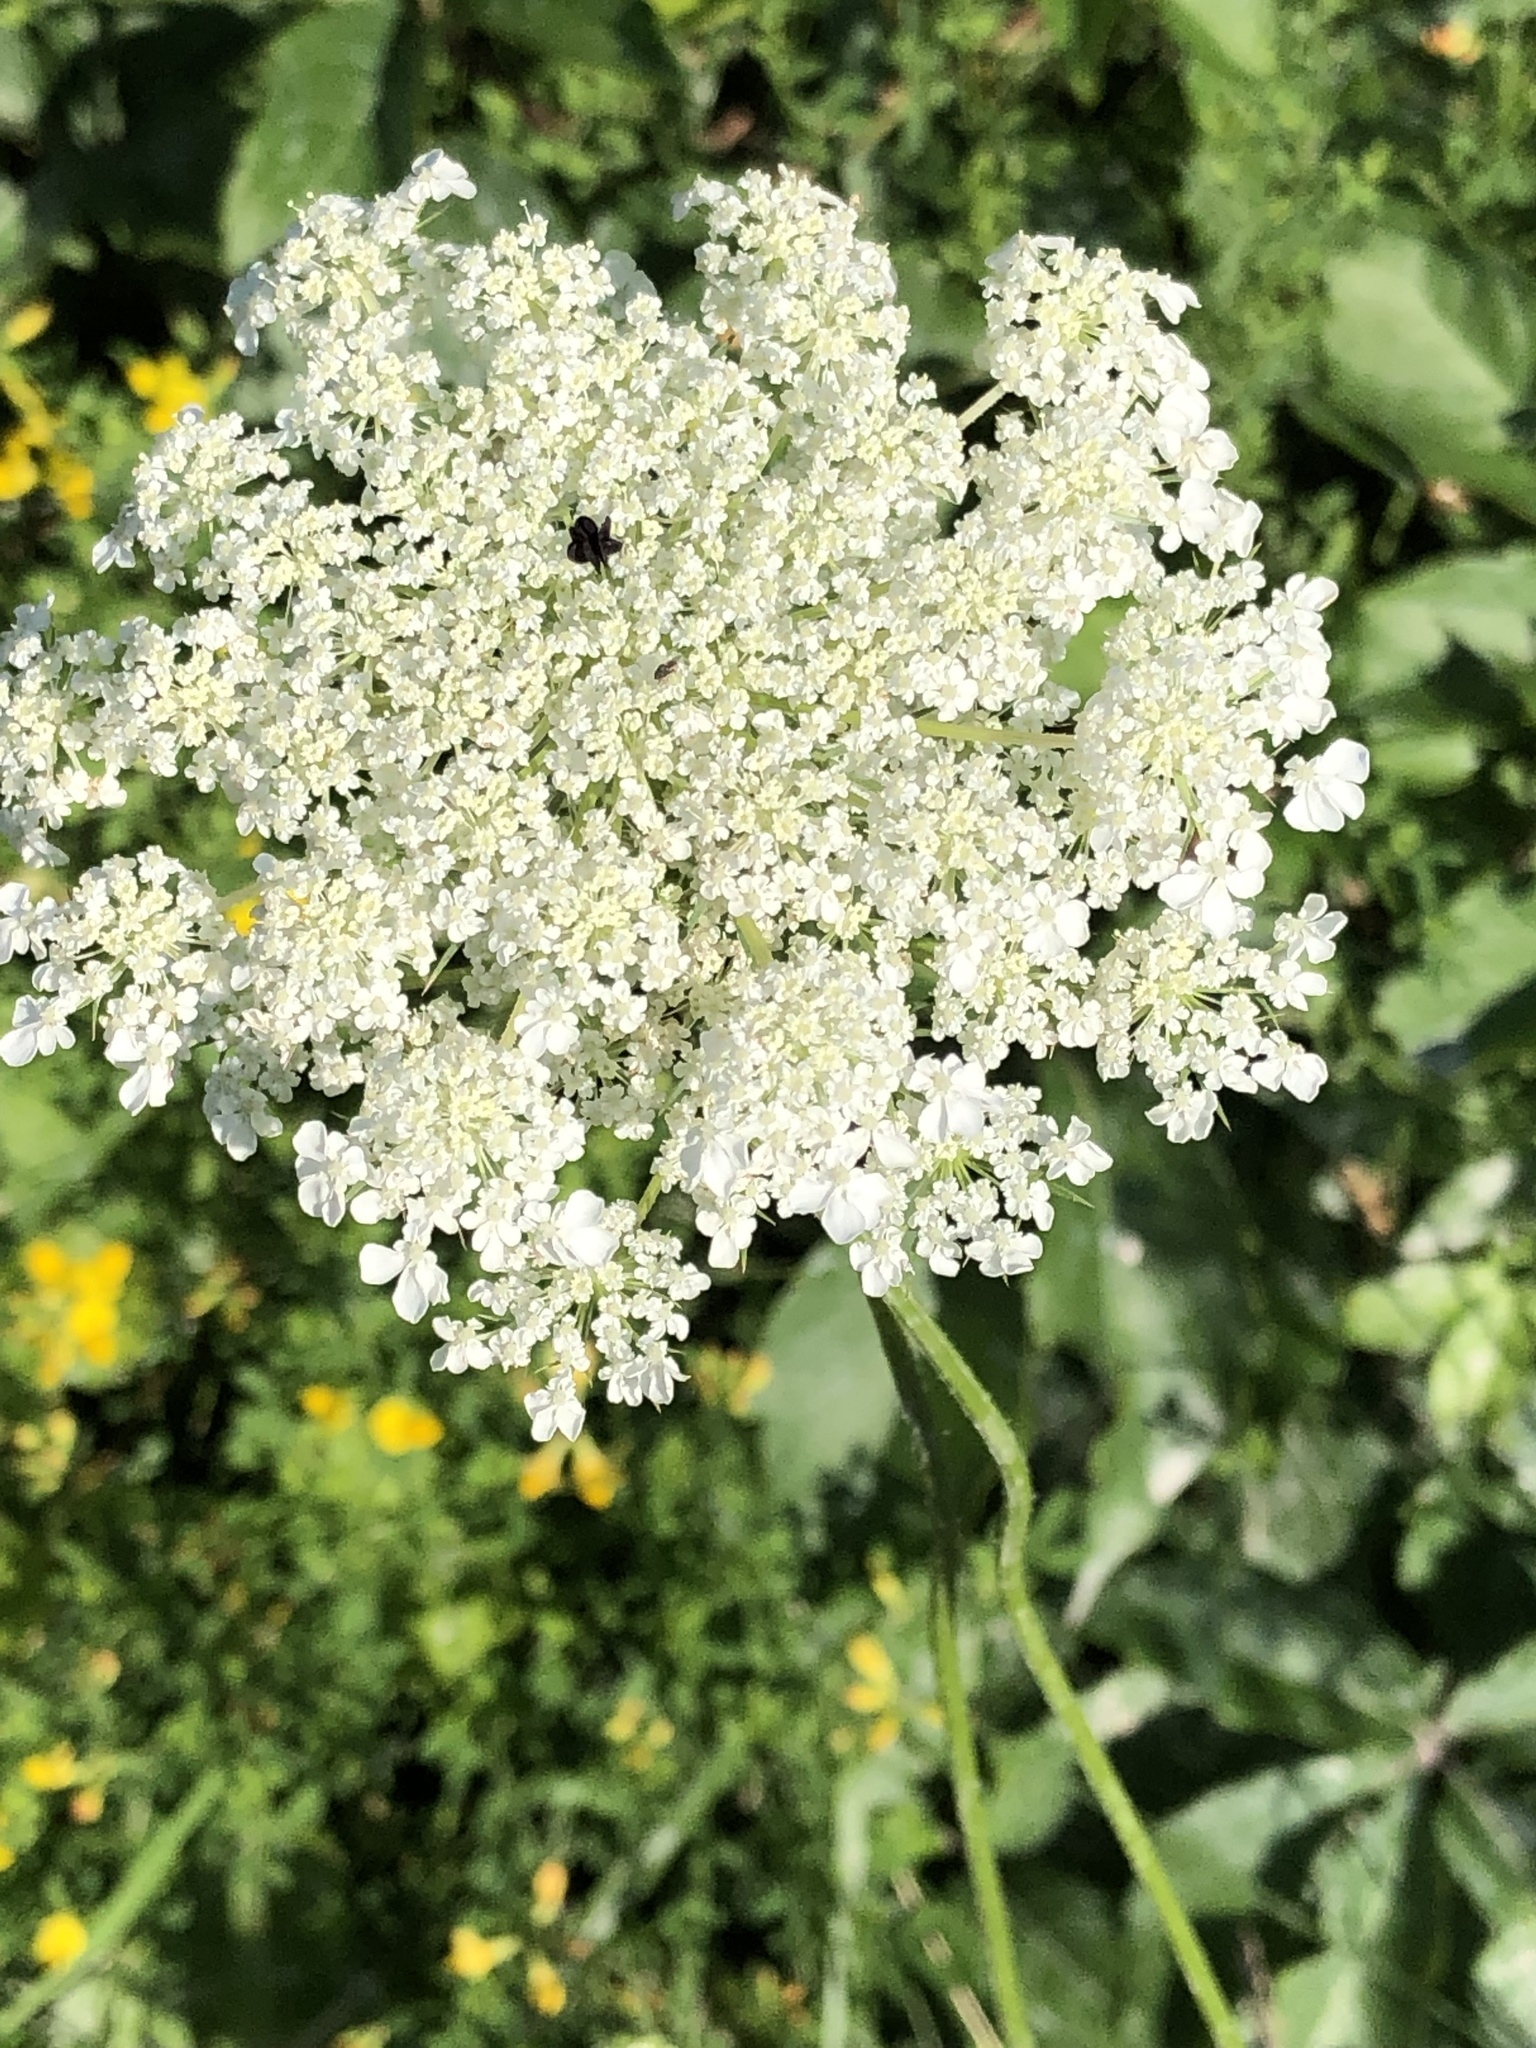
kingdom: Plantae
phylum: Tracheophyta
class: Magnoliopsida
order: Apiales
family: Apiaceae
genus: Daucus
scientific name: Daucus carota
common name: Wild carrot
